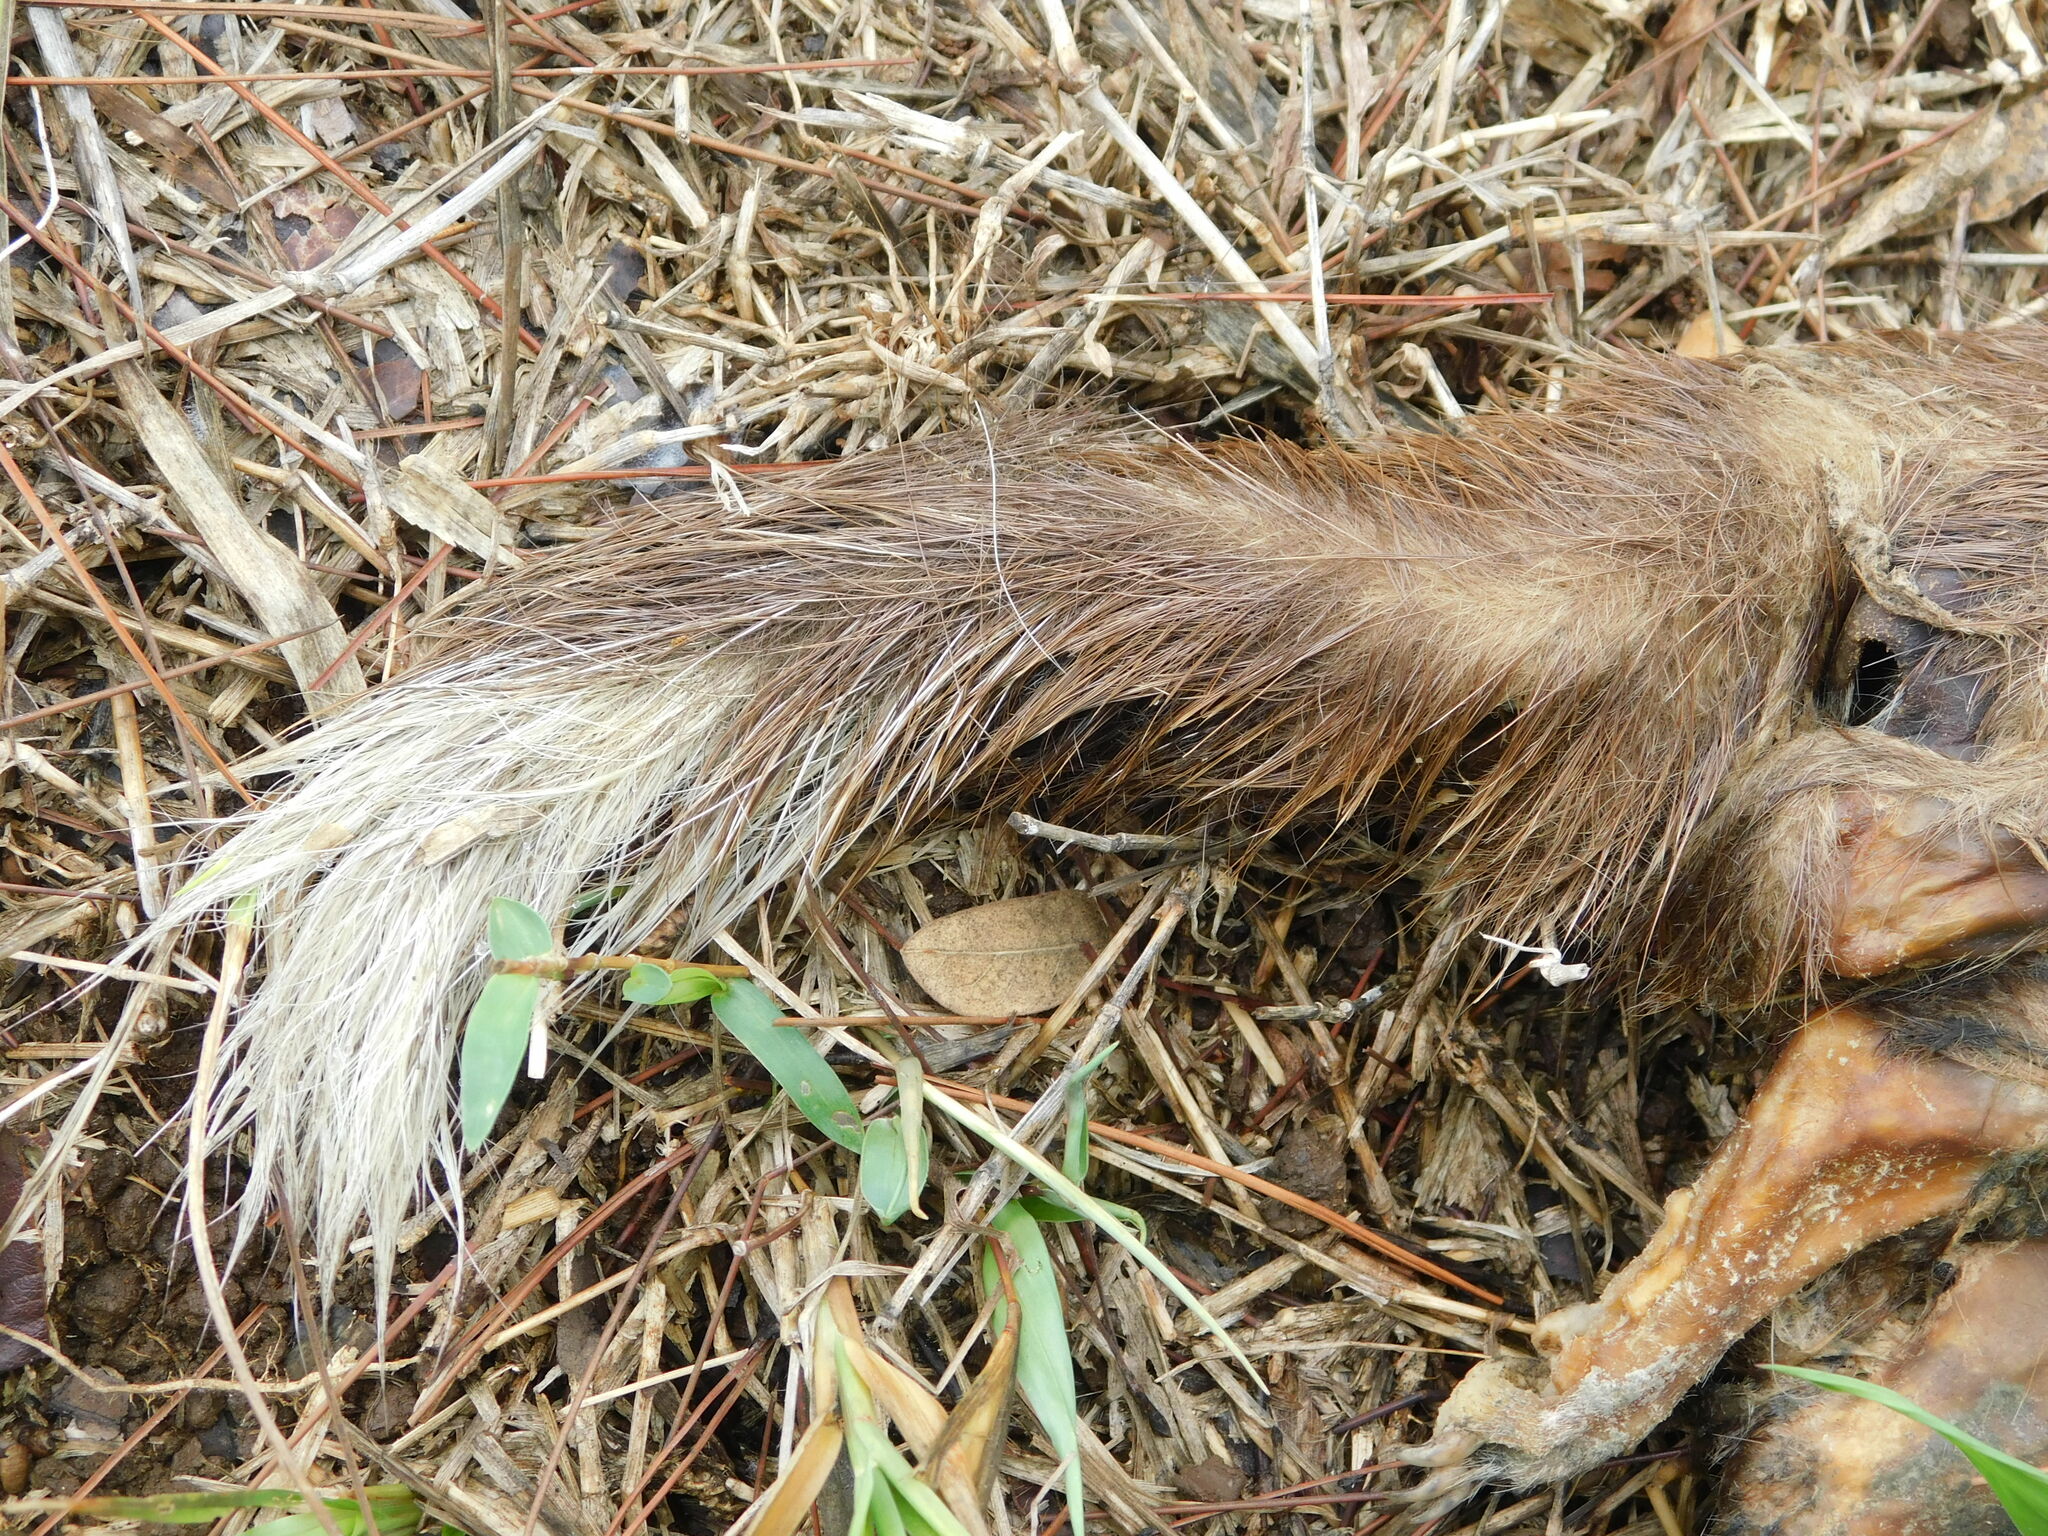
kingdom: Animalia
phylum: Chordata
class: Mammalia
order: Carnivora
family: Mustelidae
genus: Melogale
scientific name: Melogale orientalis
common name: Javan ferret-badger
